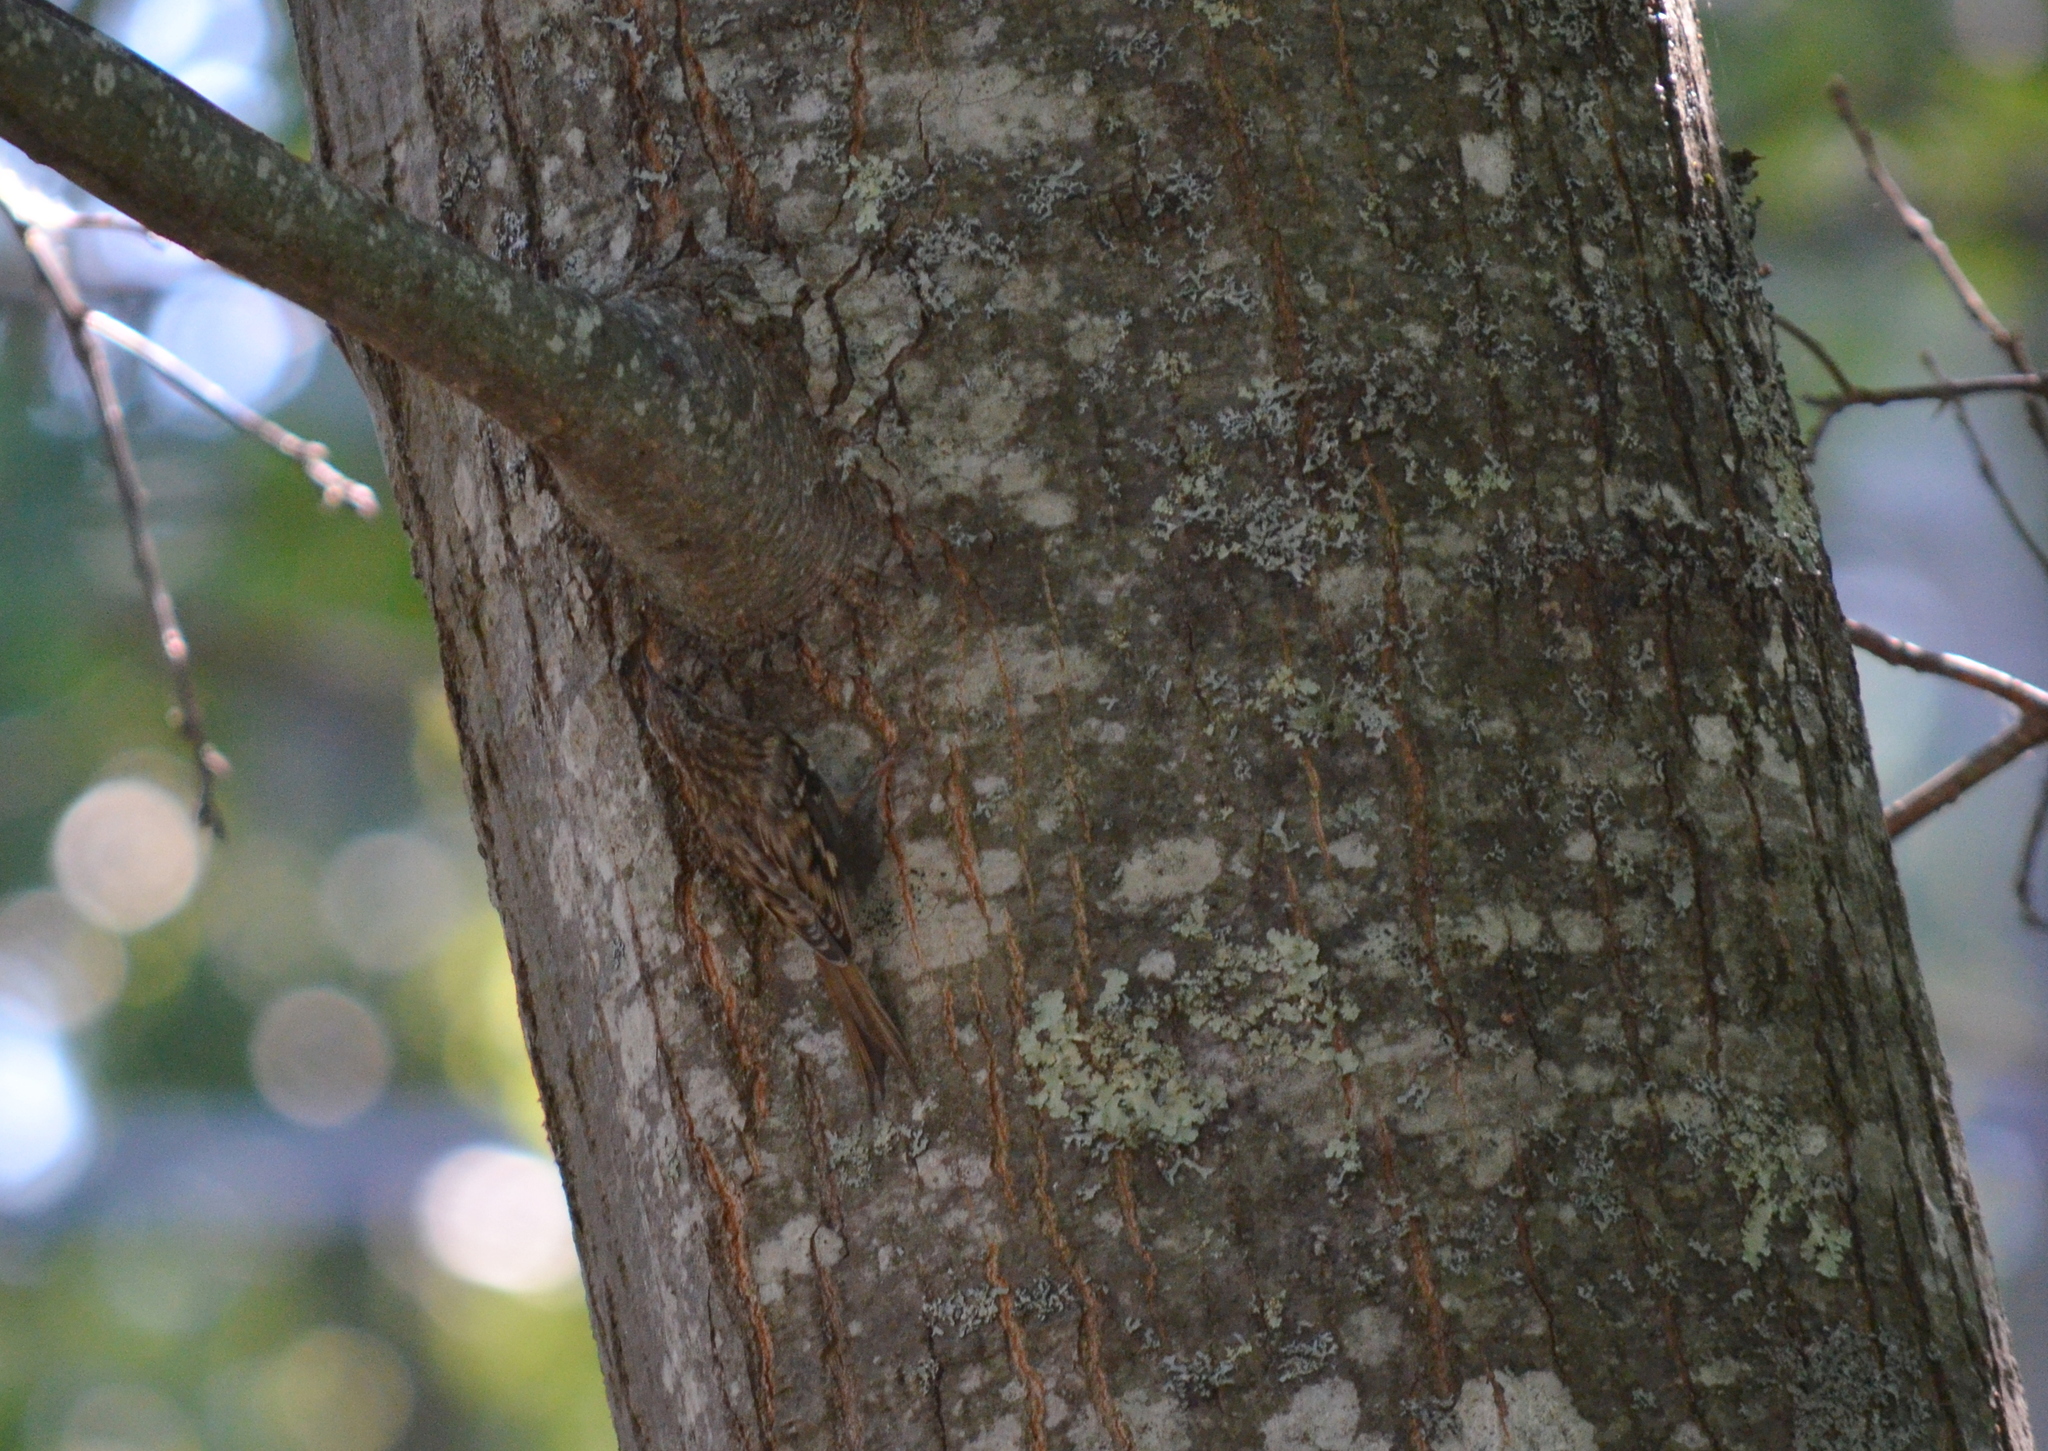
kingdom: Animalia
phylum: Chordata
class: Aves
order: Passeriformes
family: Certhiidae
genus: Certhia
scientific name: Certhia americana
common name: Brown creeper
